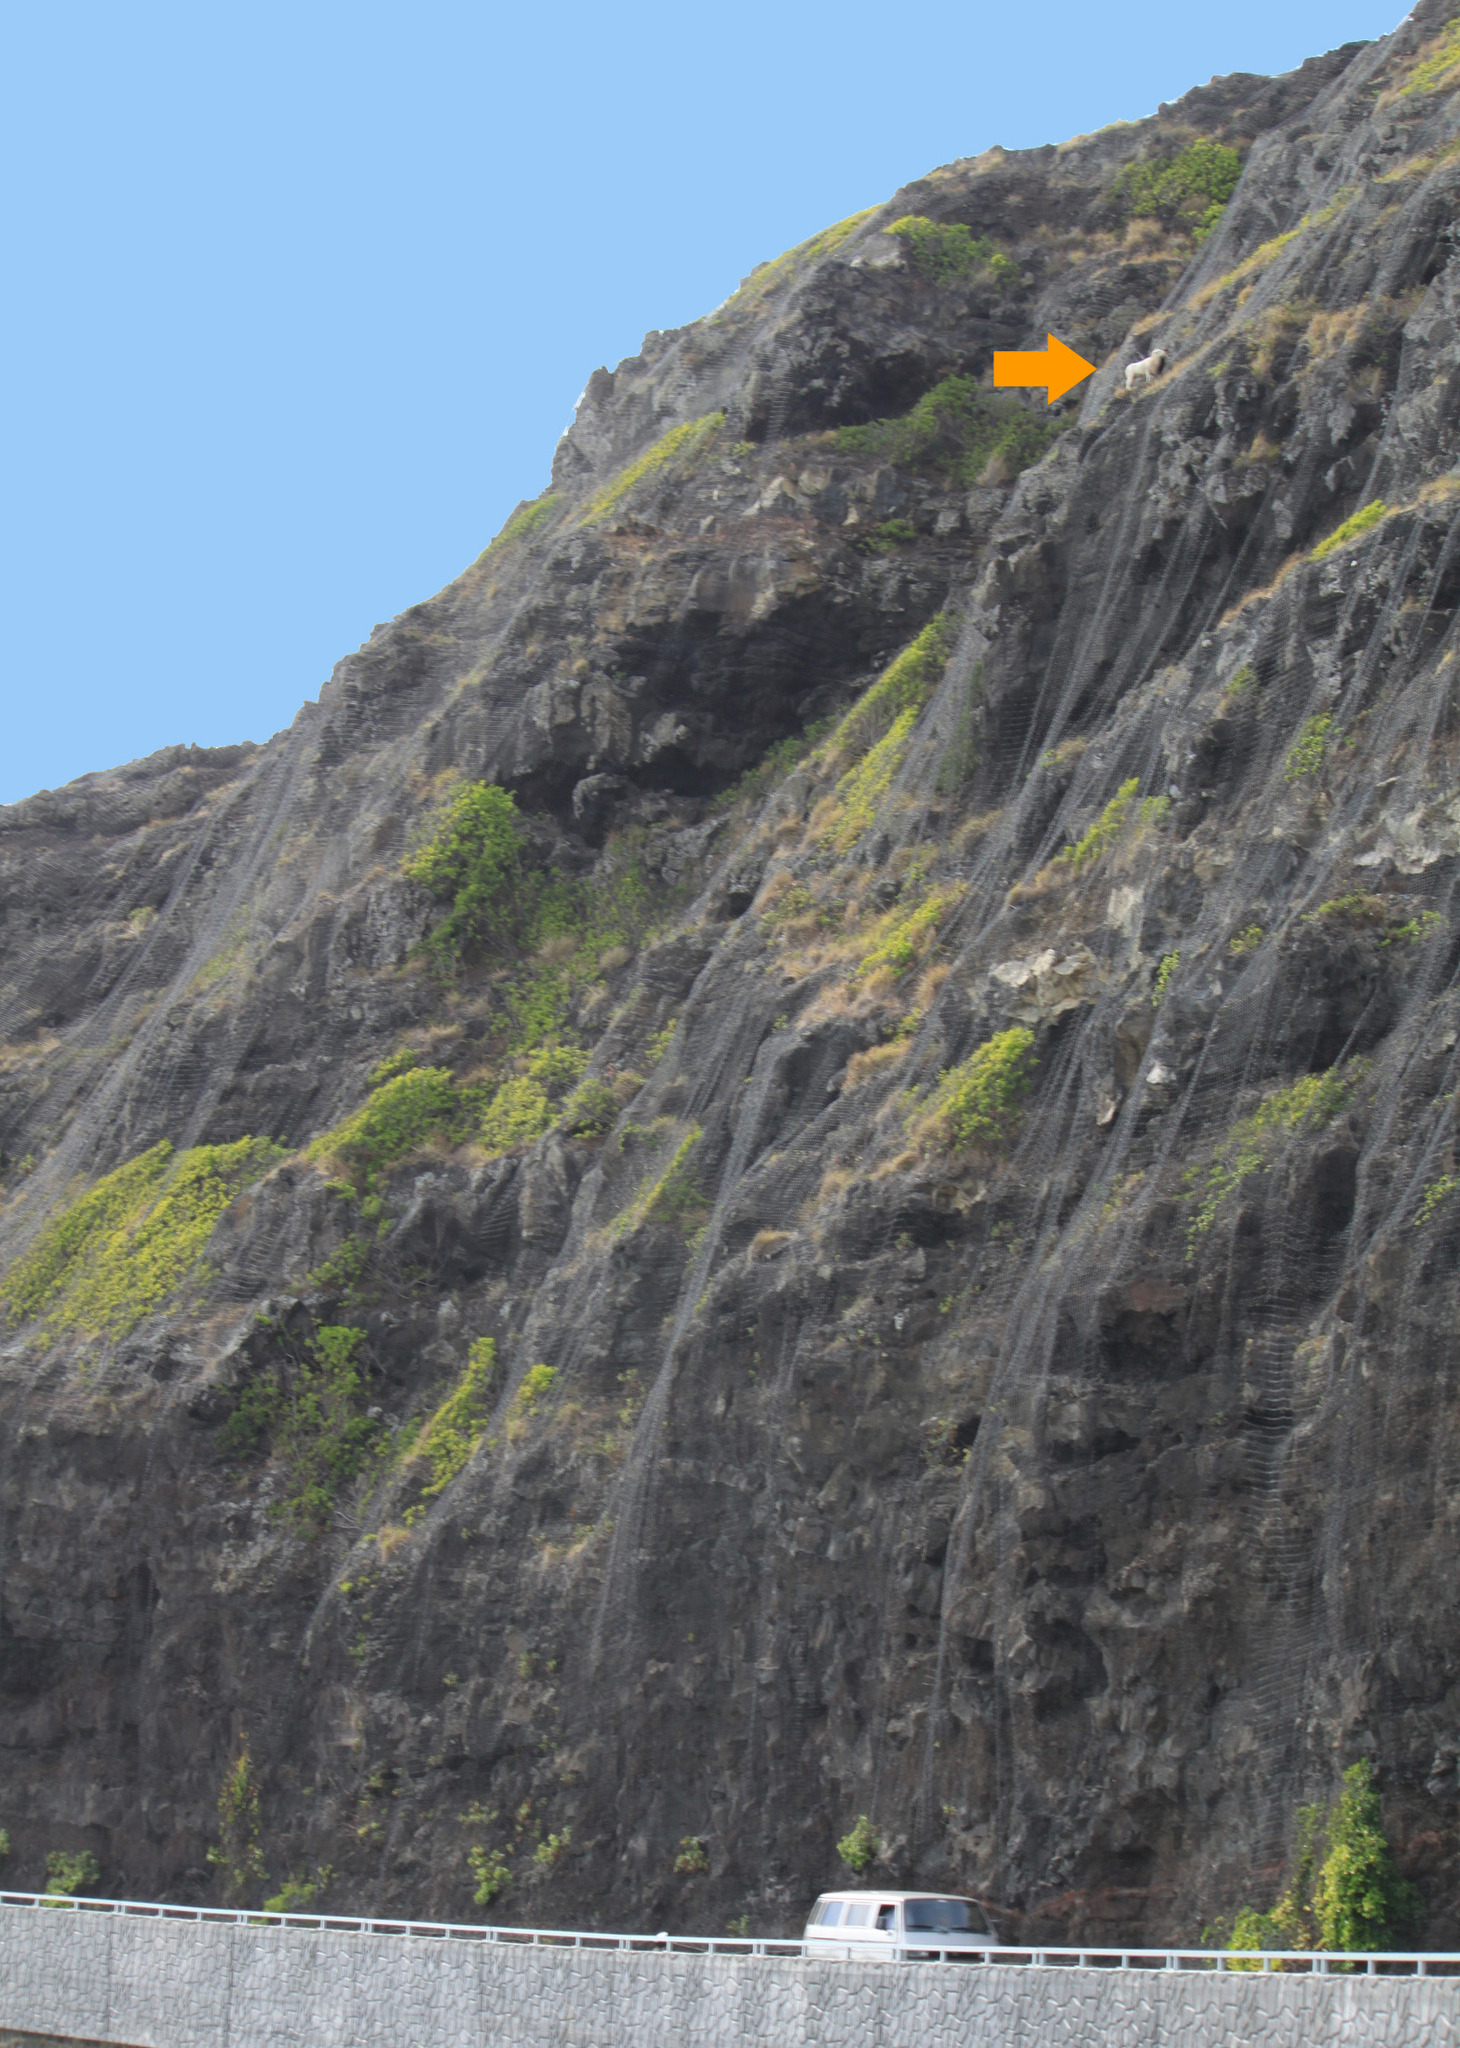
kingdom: Animalia
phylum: Chordata
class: Mammalia
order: Artiodactyla
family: Bovidae
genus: Ovis
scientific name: Ovis aries
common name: Domestic sheep
